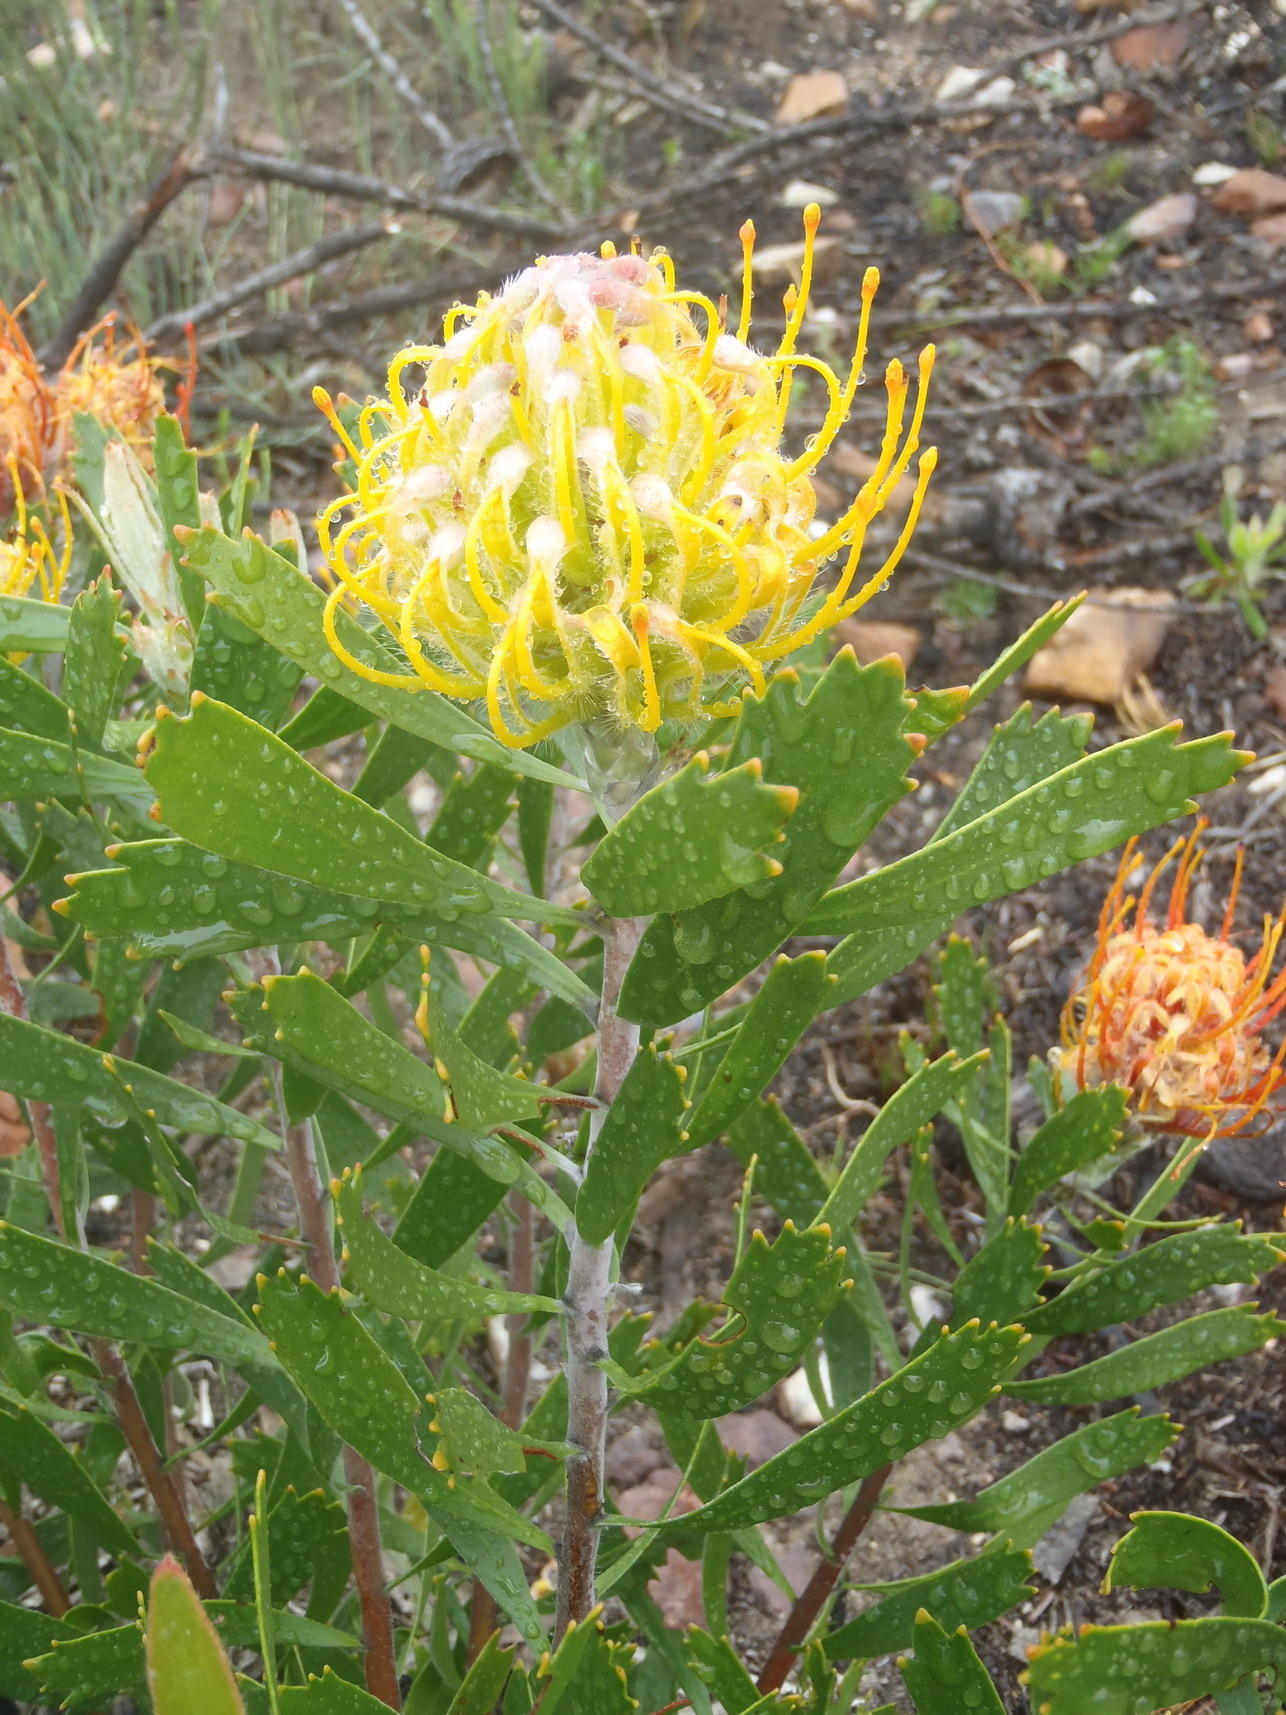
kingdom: Plantae
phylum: Tracheophyta
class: Magnoliopsida
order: Proteales
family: Proteaceae
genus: Leucospermum
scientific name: Leucospermum cuneiforme
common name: Common pincushion
